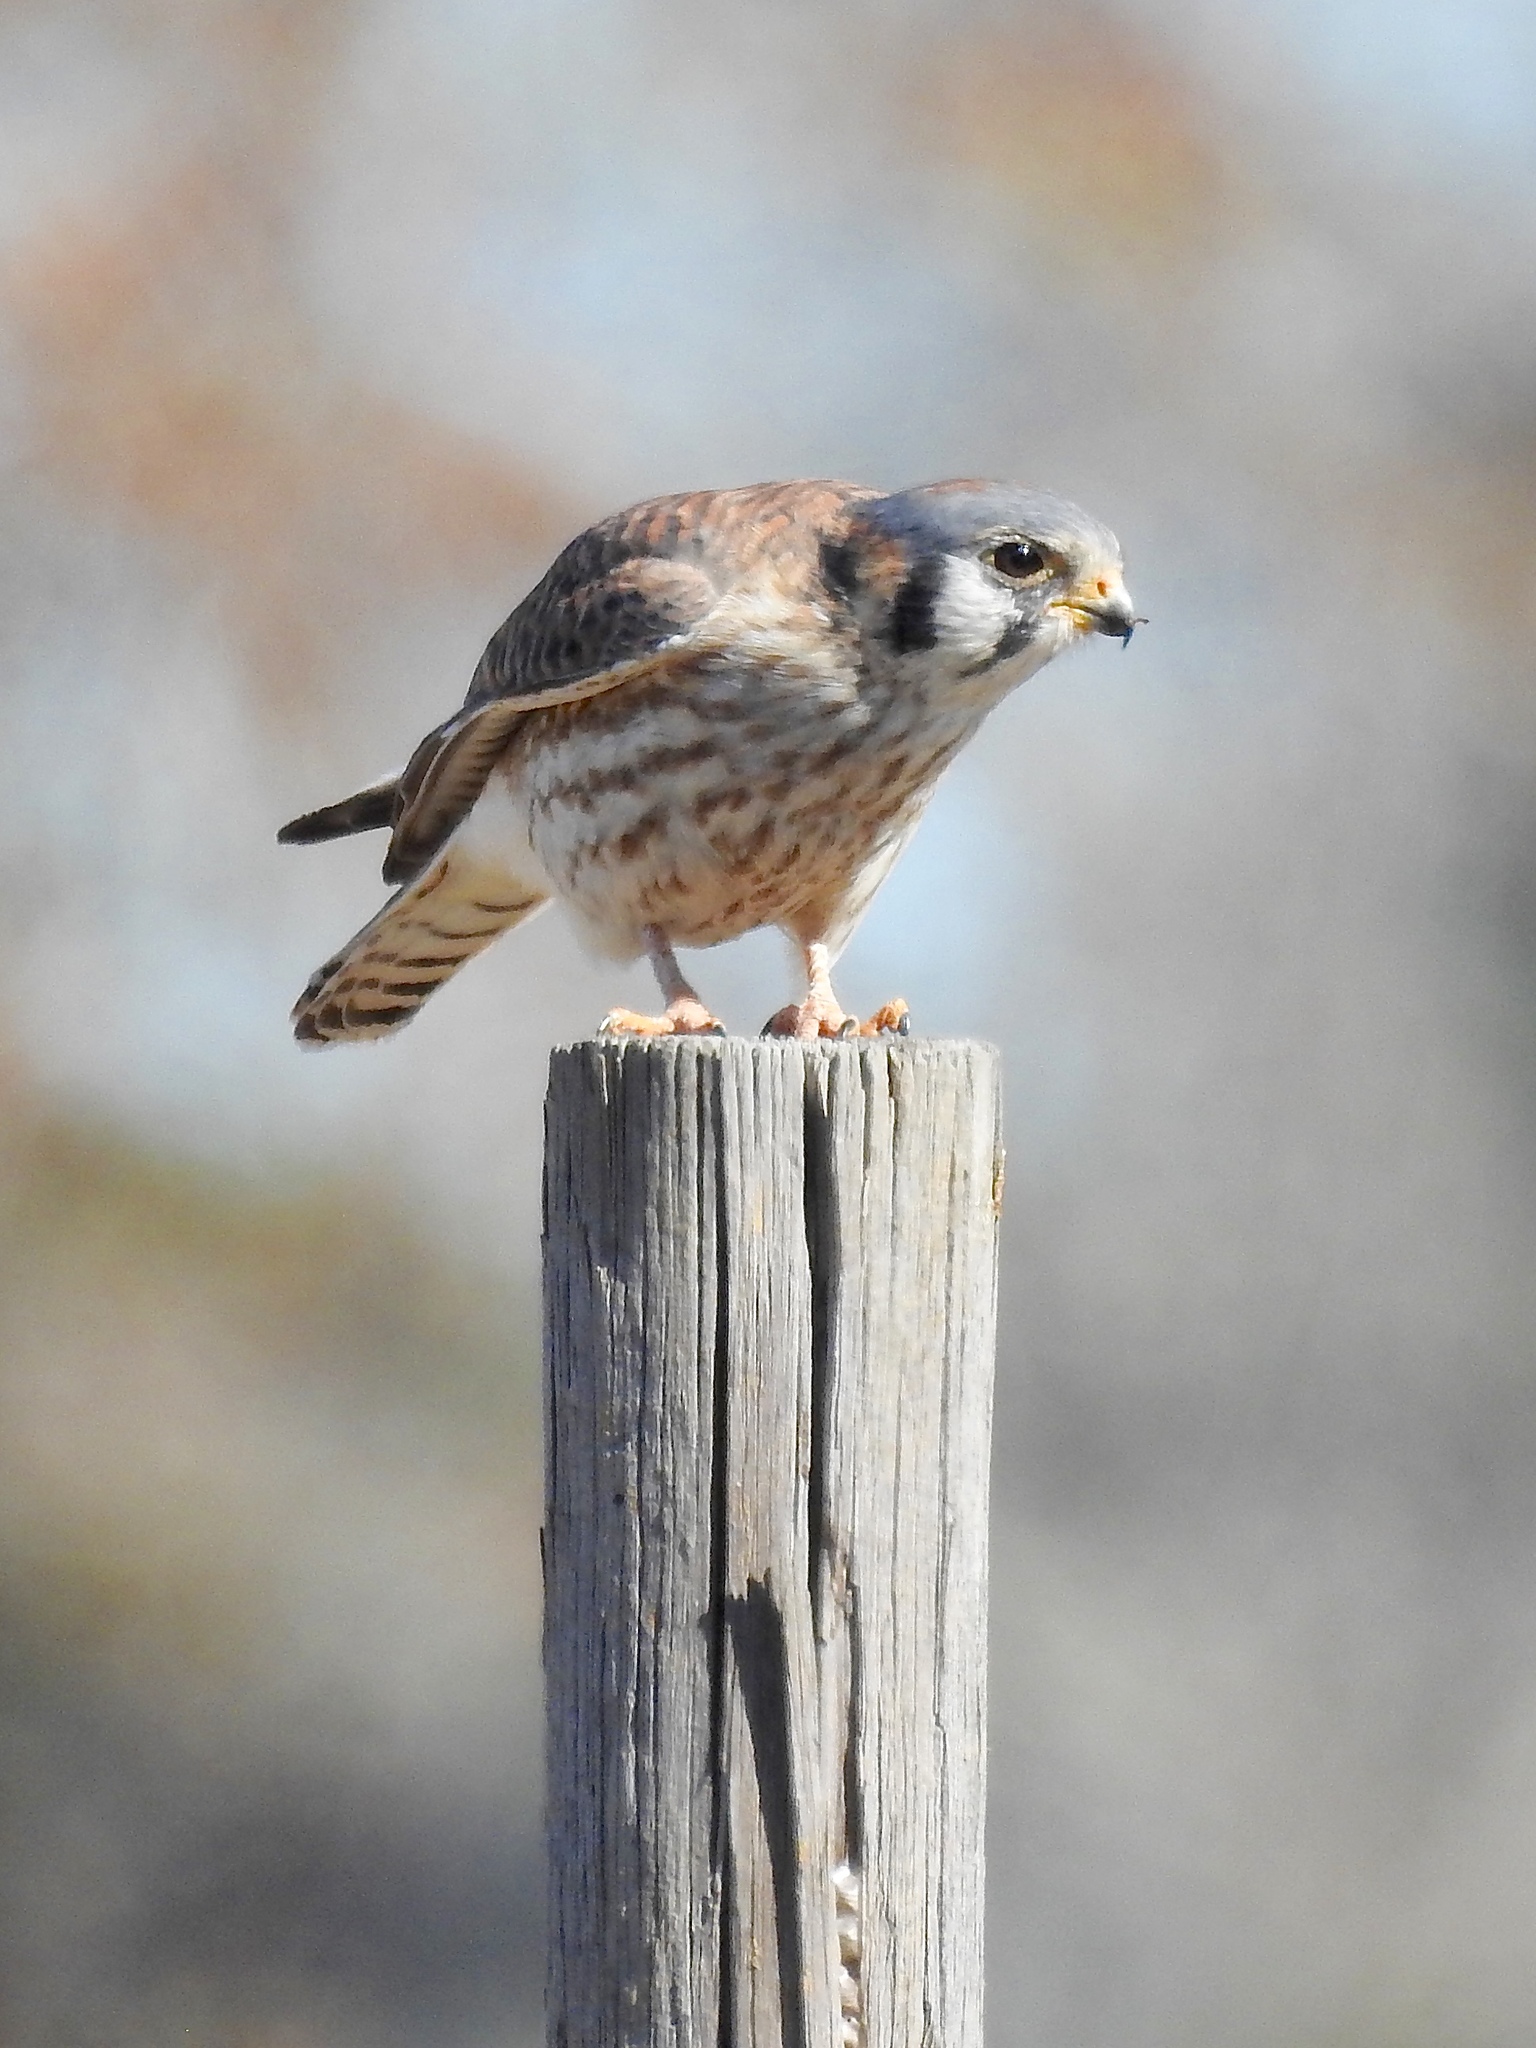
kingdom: Animalia
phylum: Chordata
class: Aves
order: Falconiformes
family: Falconidae
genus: Falco
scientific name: Falco sparverius
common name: American kestrel
